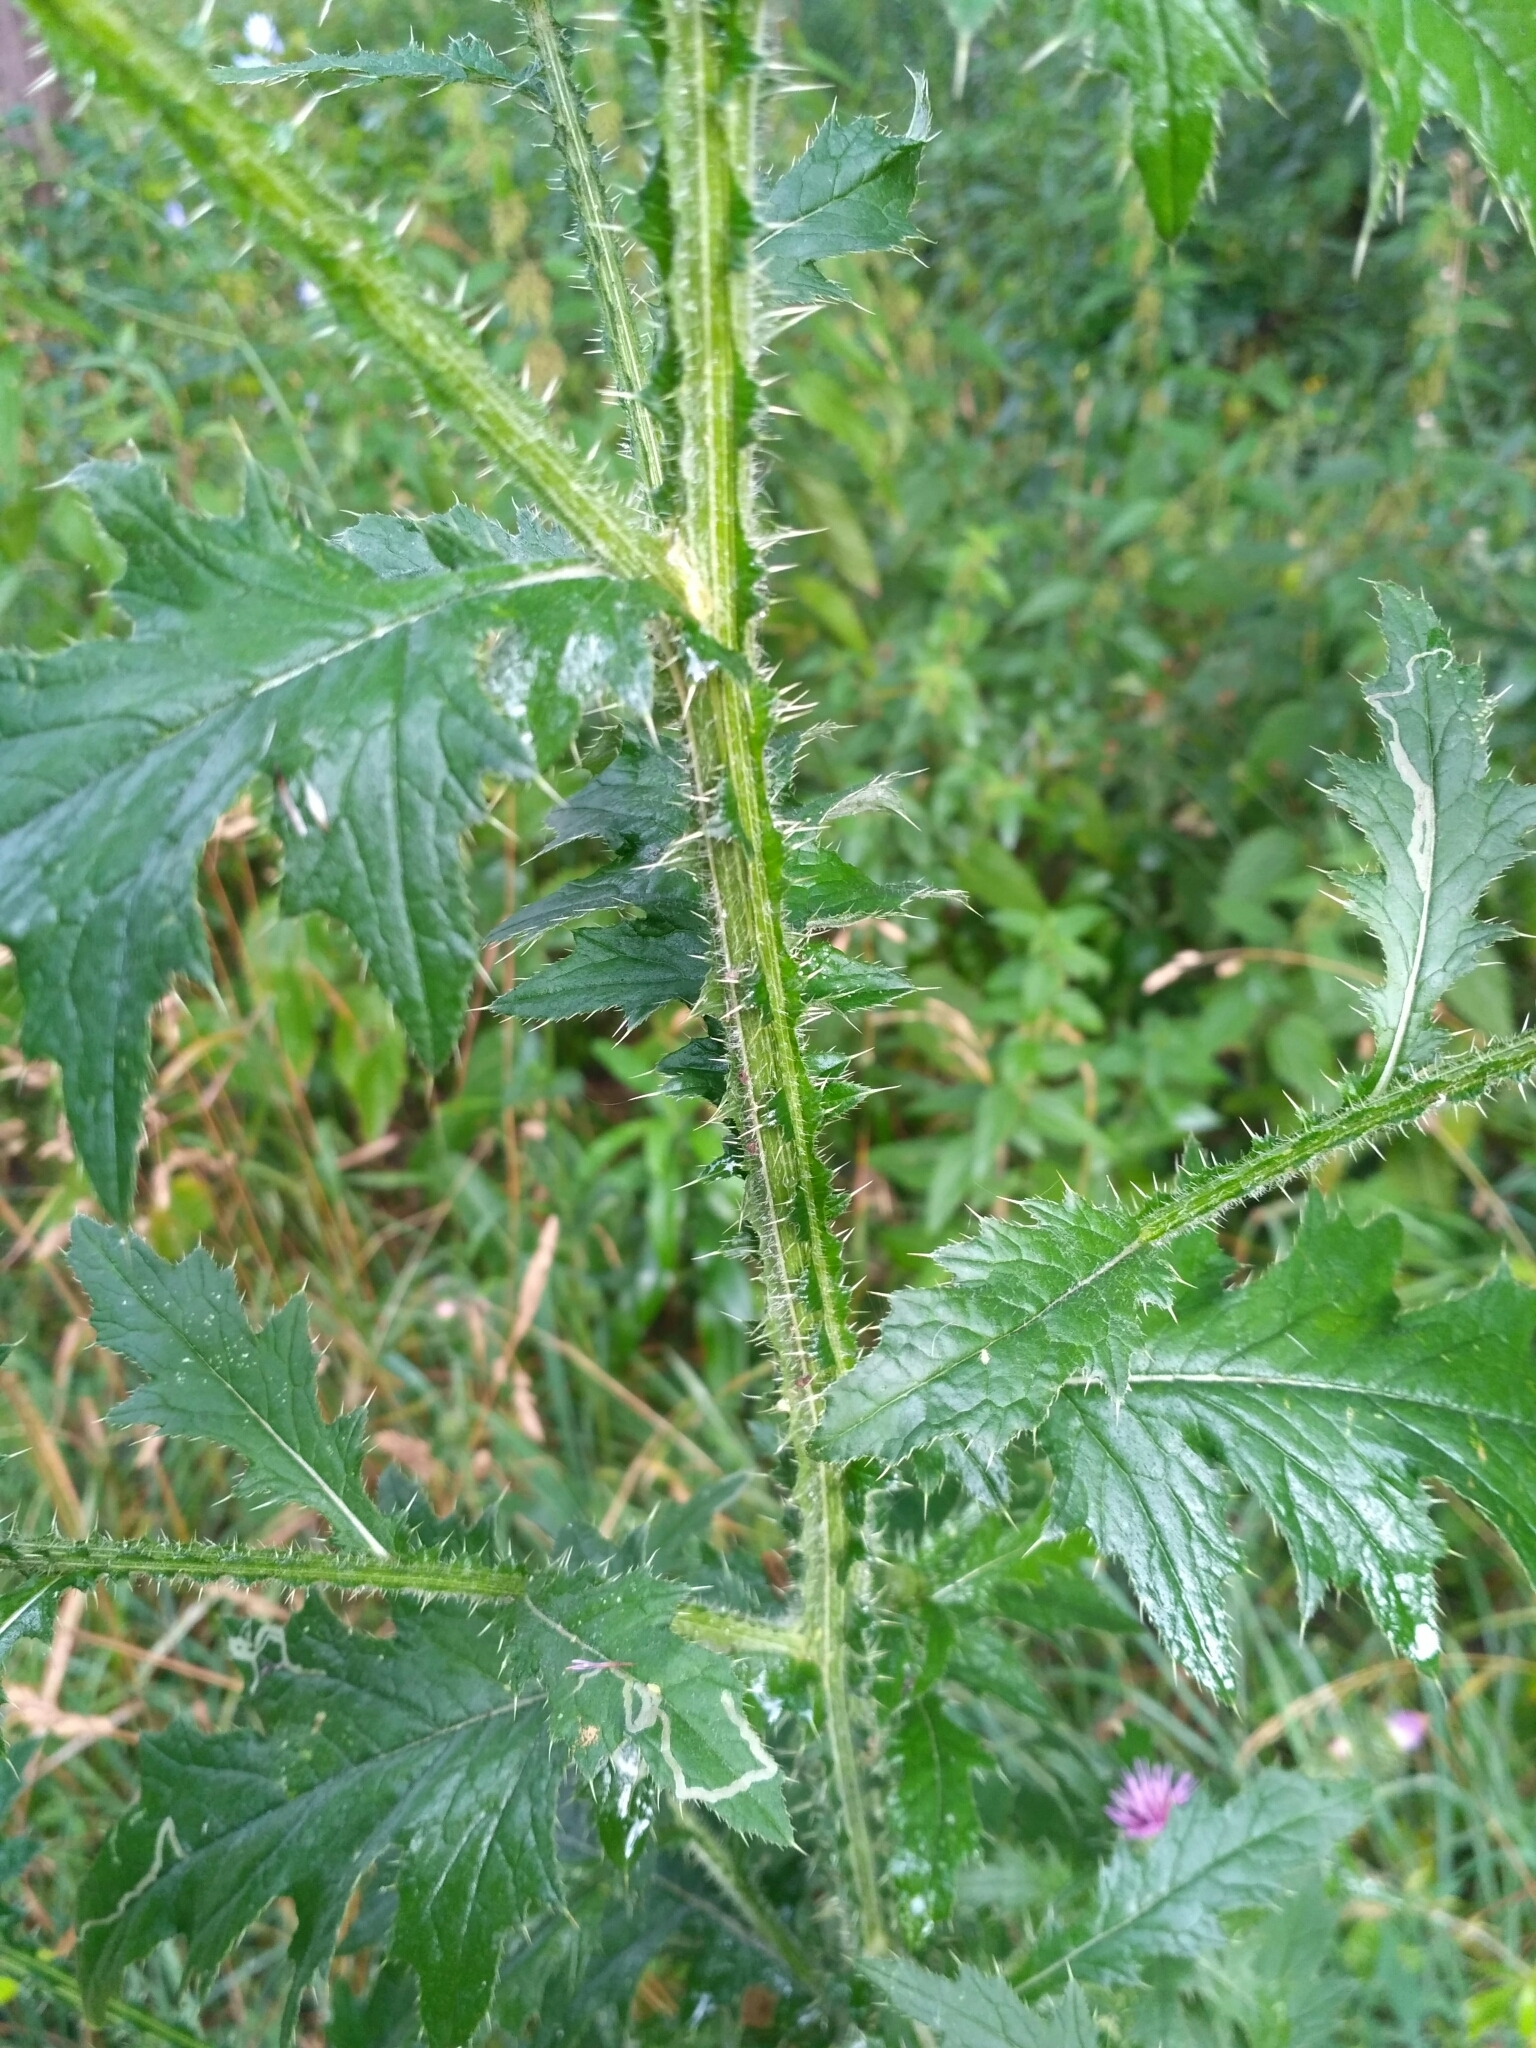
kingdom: Plantae
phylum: Tracheophyta
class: Magnoliopsida
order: Asterales
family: Asteraceae
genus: Carduus
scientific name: Carduus crispus
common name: Welted thistle
